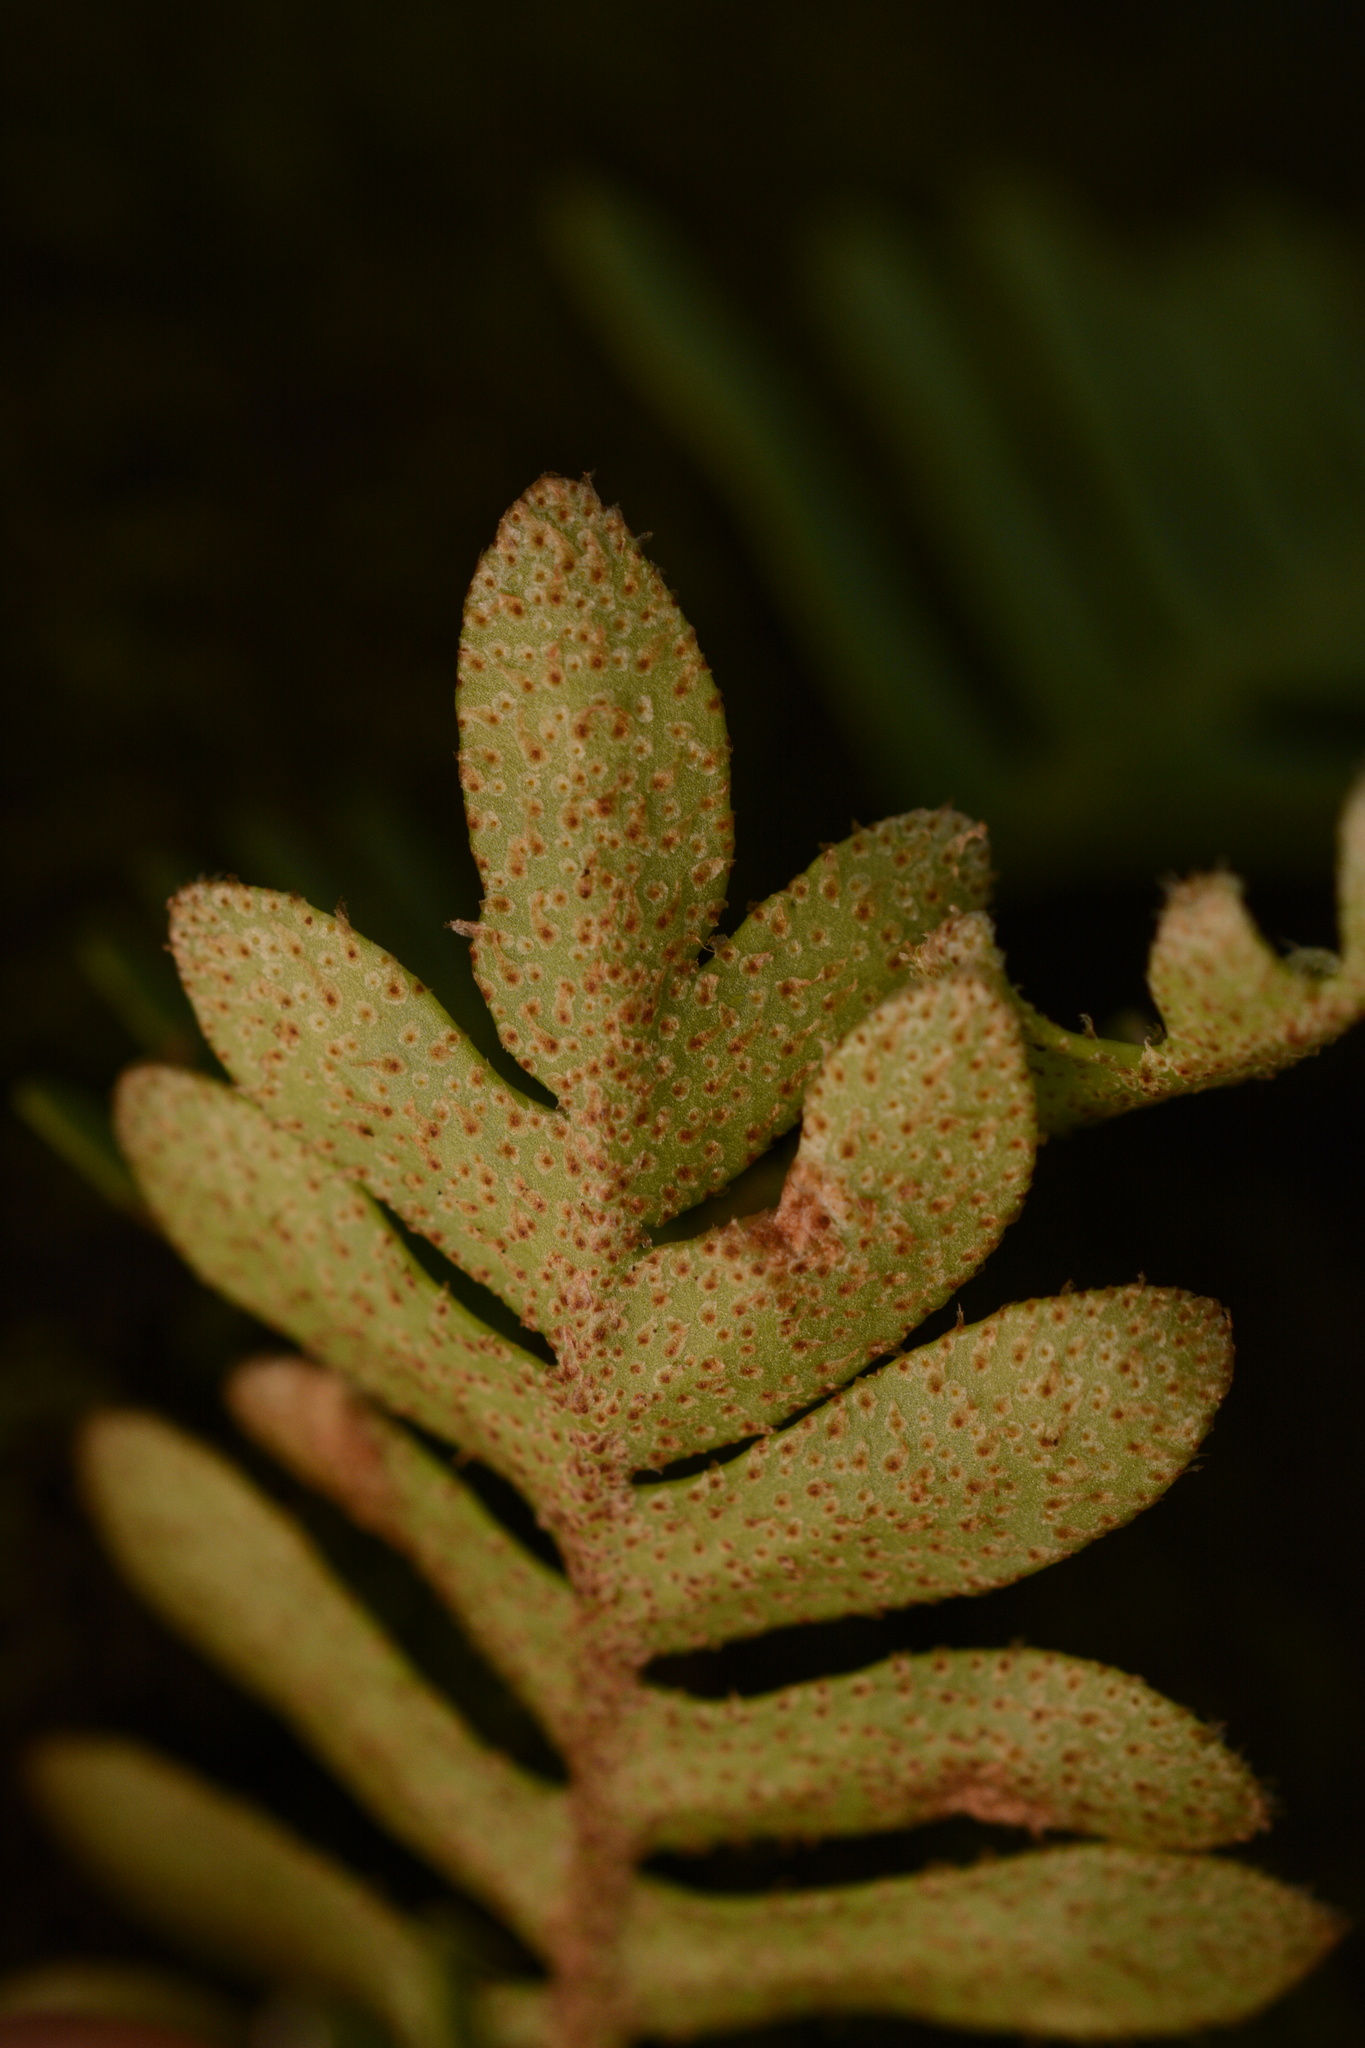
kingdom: Plantae
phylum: Tracheophyta
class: Polypodiopsida
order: Polypodiales
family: Polypodiaceae
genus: Pleopeltis
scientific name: Pleopeltis michauxiana
